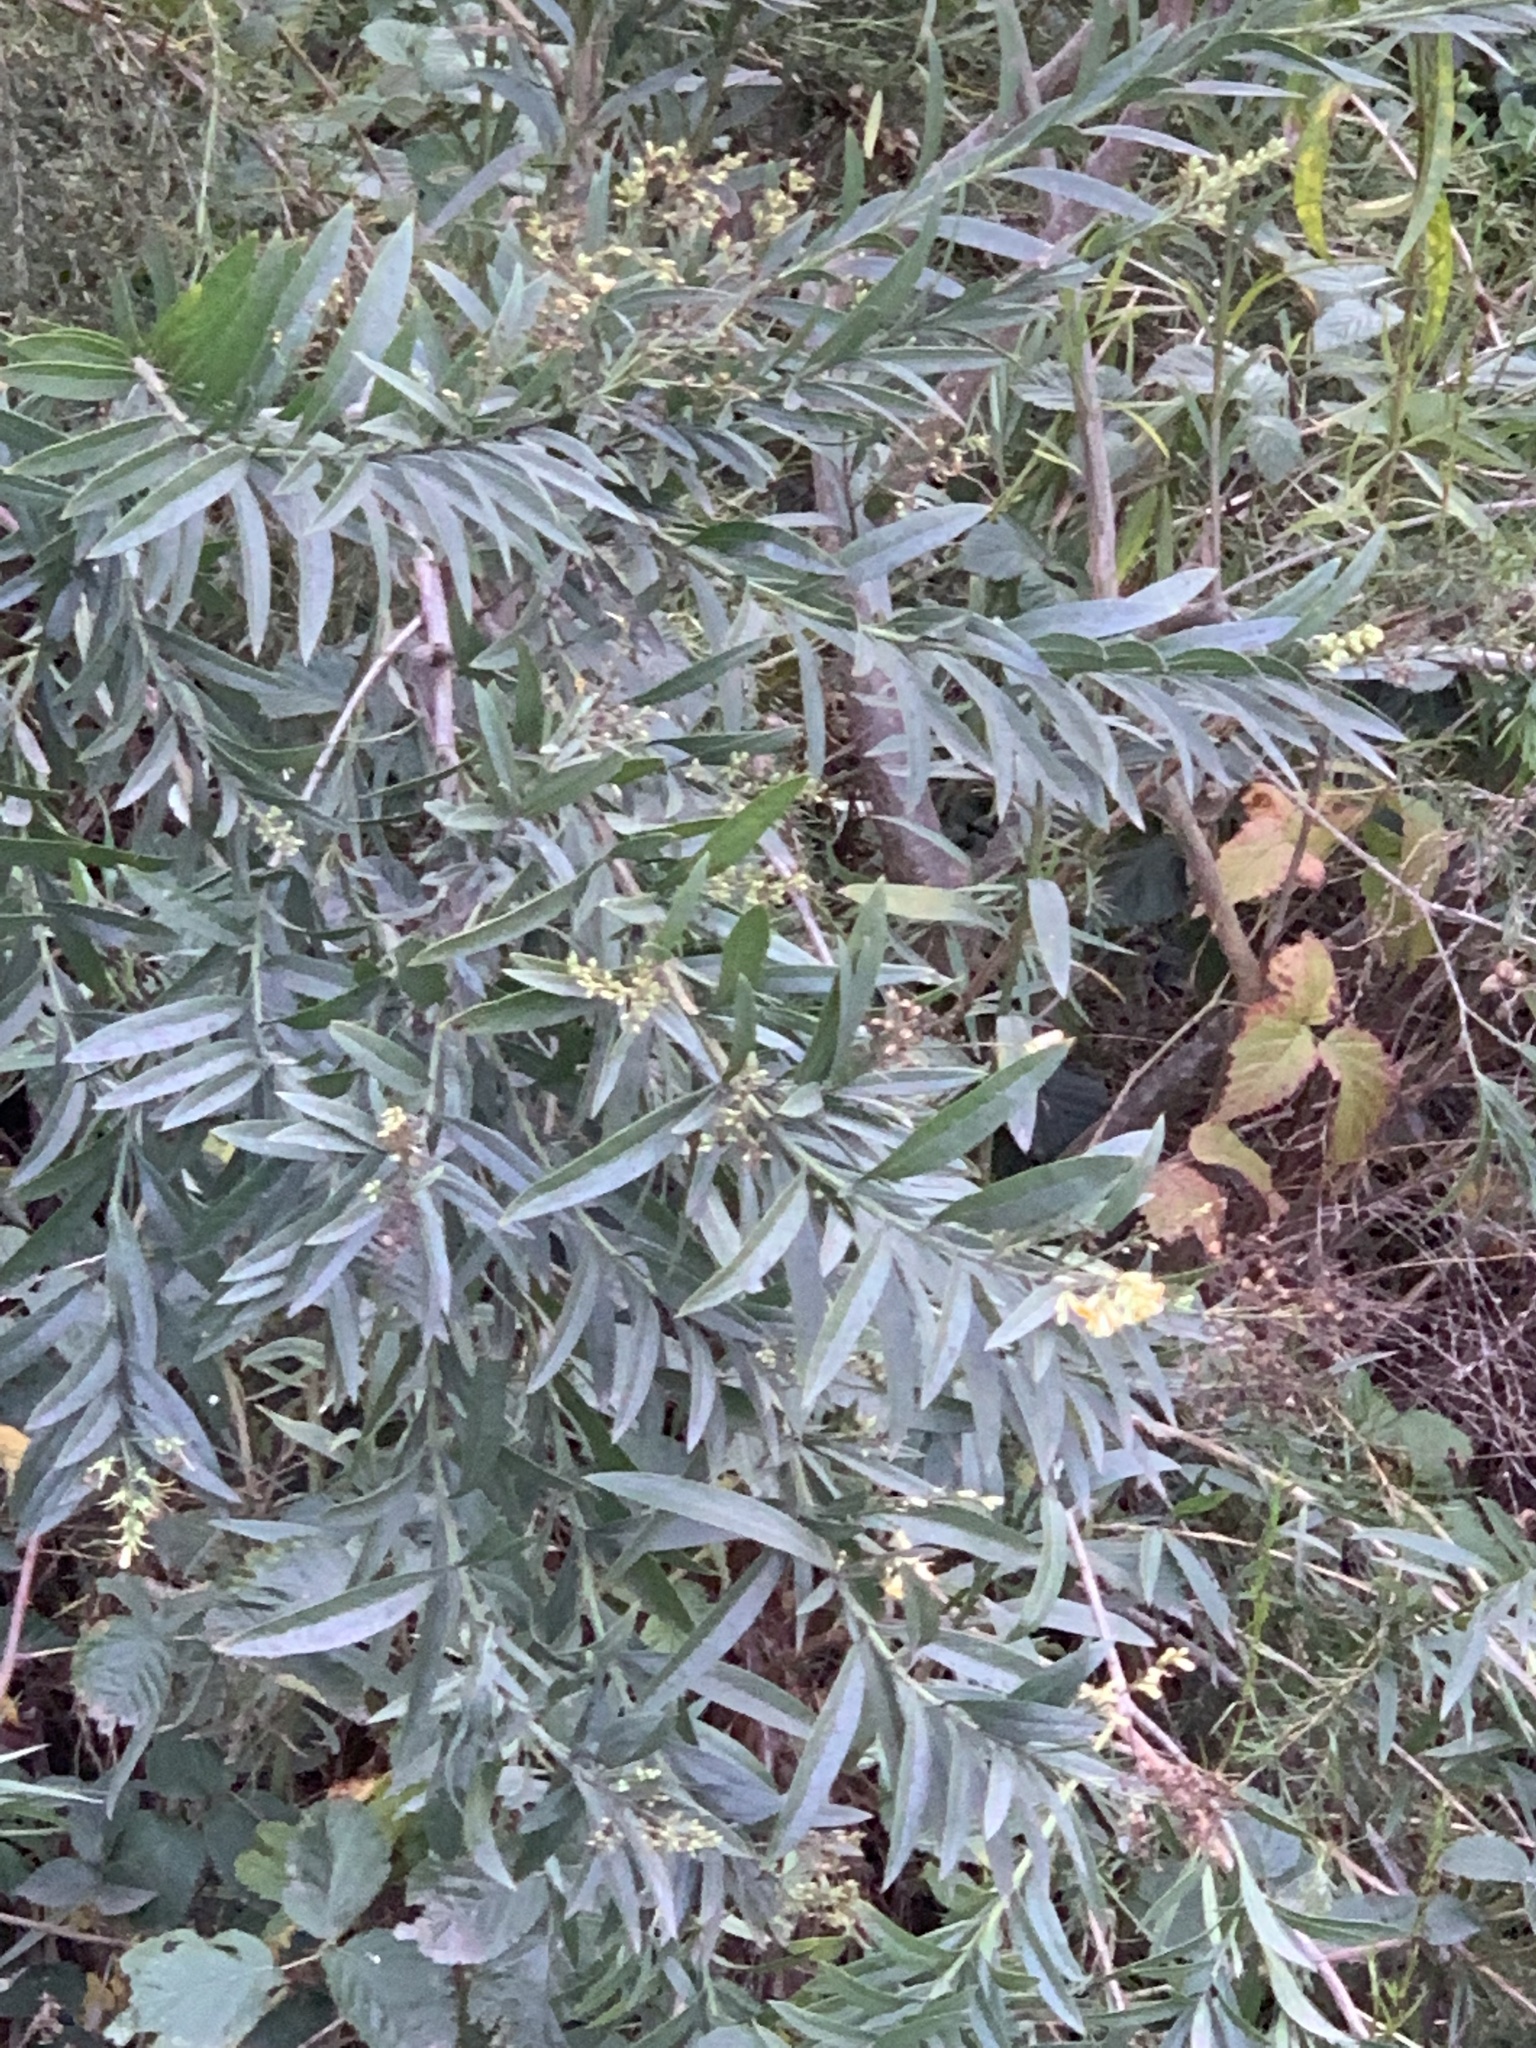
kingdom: Plantae
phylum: Tracheophyta
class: Magnoliopsida
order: Lamiales
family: Scrophulariaceae
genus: Freylinia
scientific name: Freylinia lanceolata
